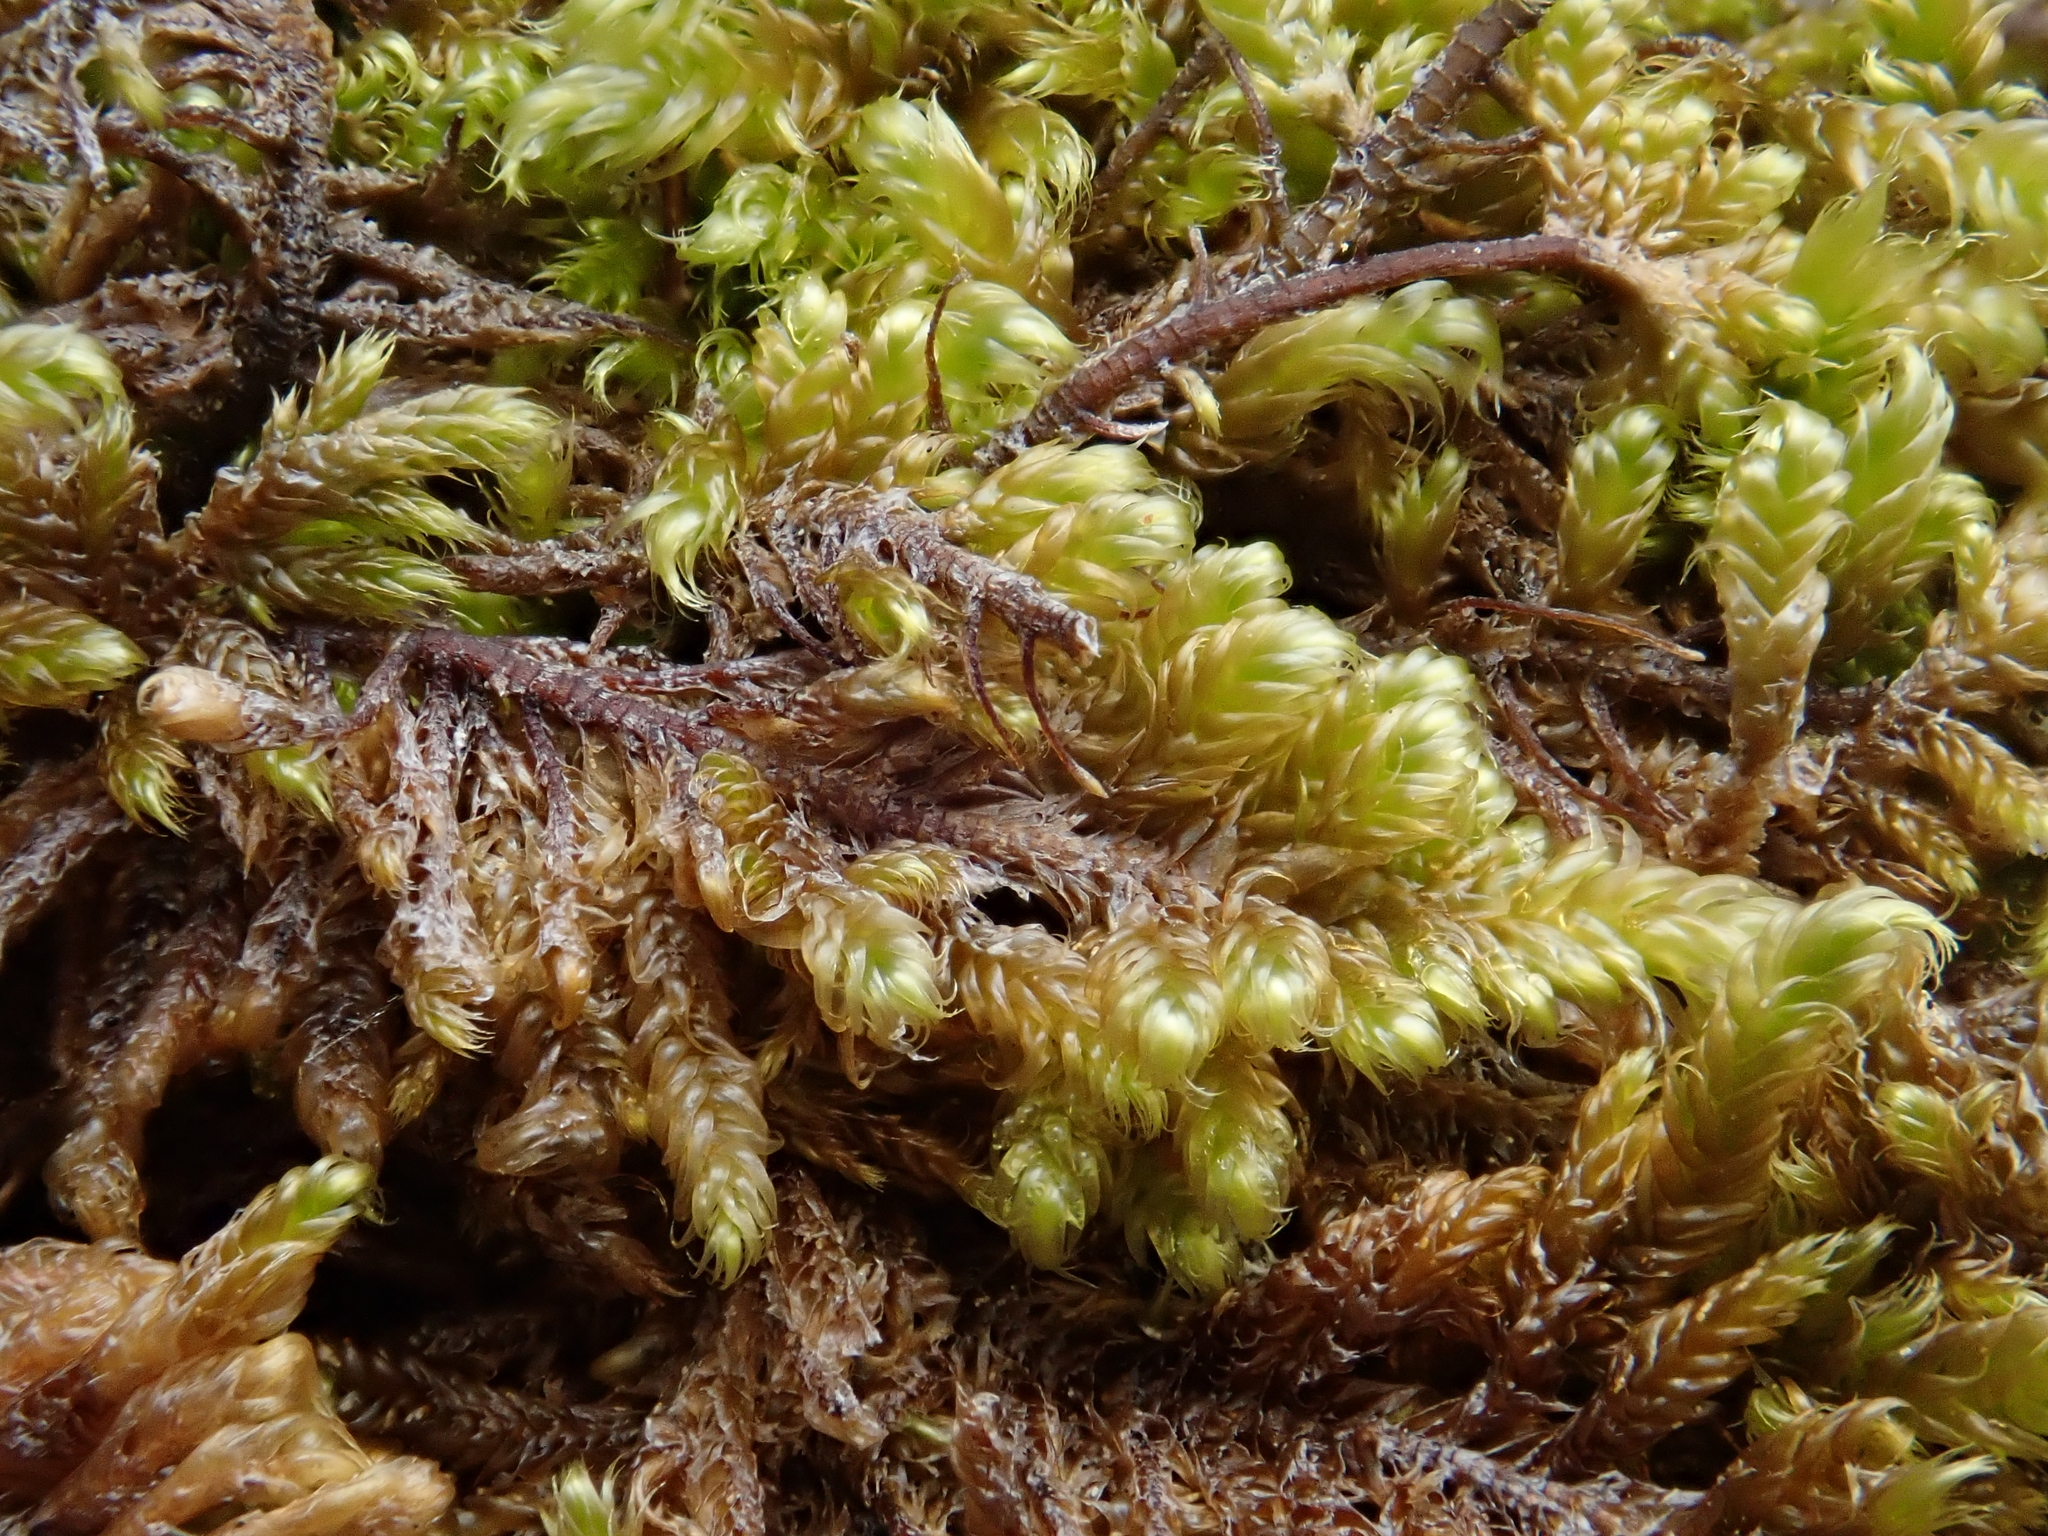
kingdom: Plantae
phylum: Bryophyta
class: Bryopsida
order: Hypnales
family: Pylaisiaceae
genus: Pseudostereodon
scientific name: Pseudostereodon procerrimus
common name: Alpine comb-moss
